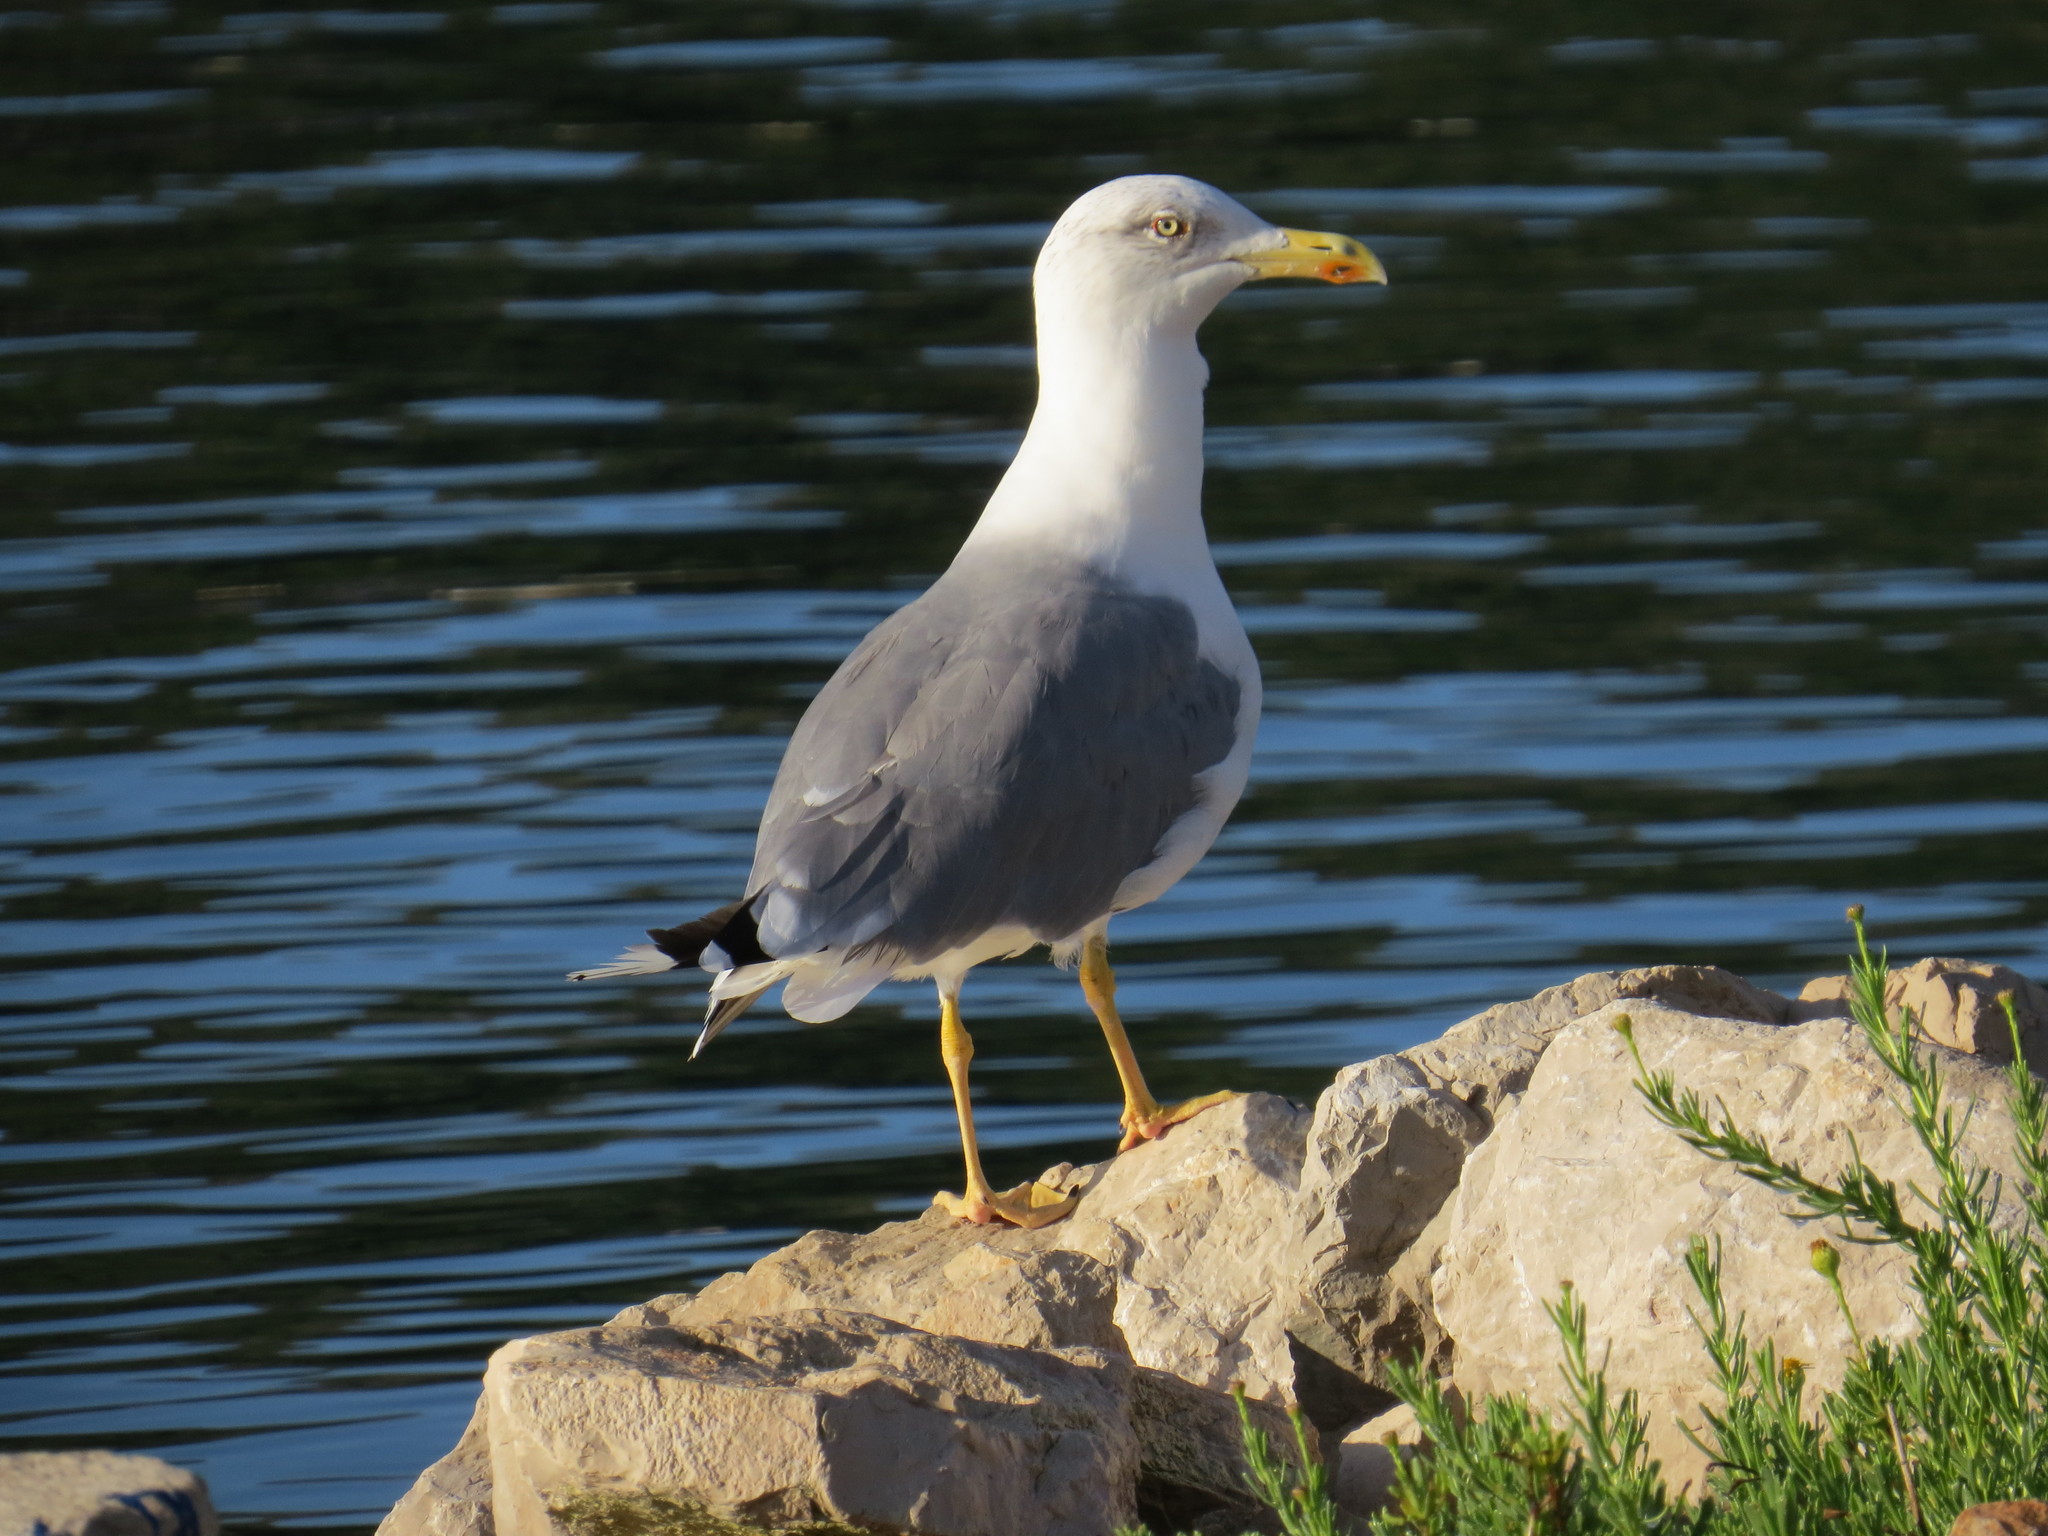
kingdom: Animalia
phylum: Chordata
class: Aves
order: Charadriiformes
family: Laridae
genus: Larus
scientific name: Larus michahellis
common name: Yellow-legged gull
